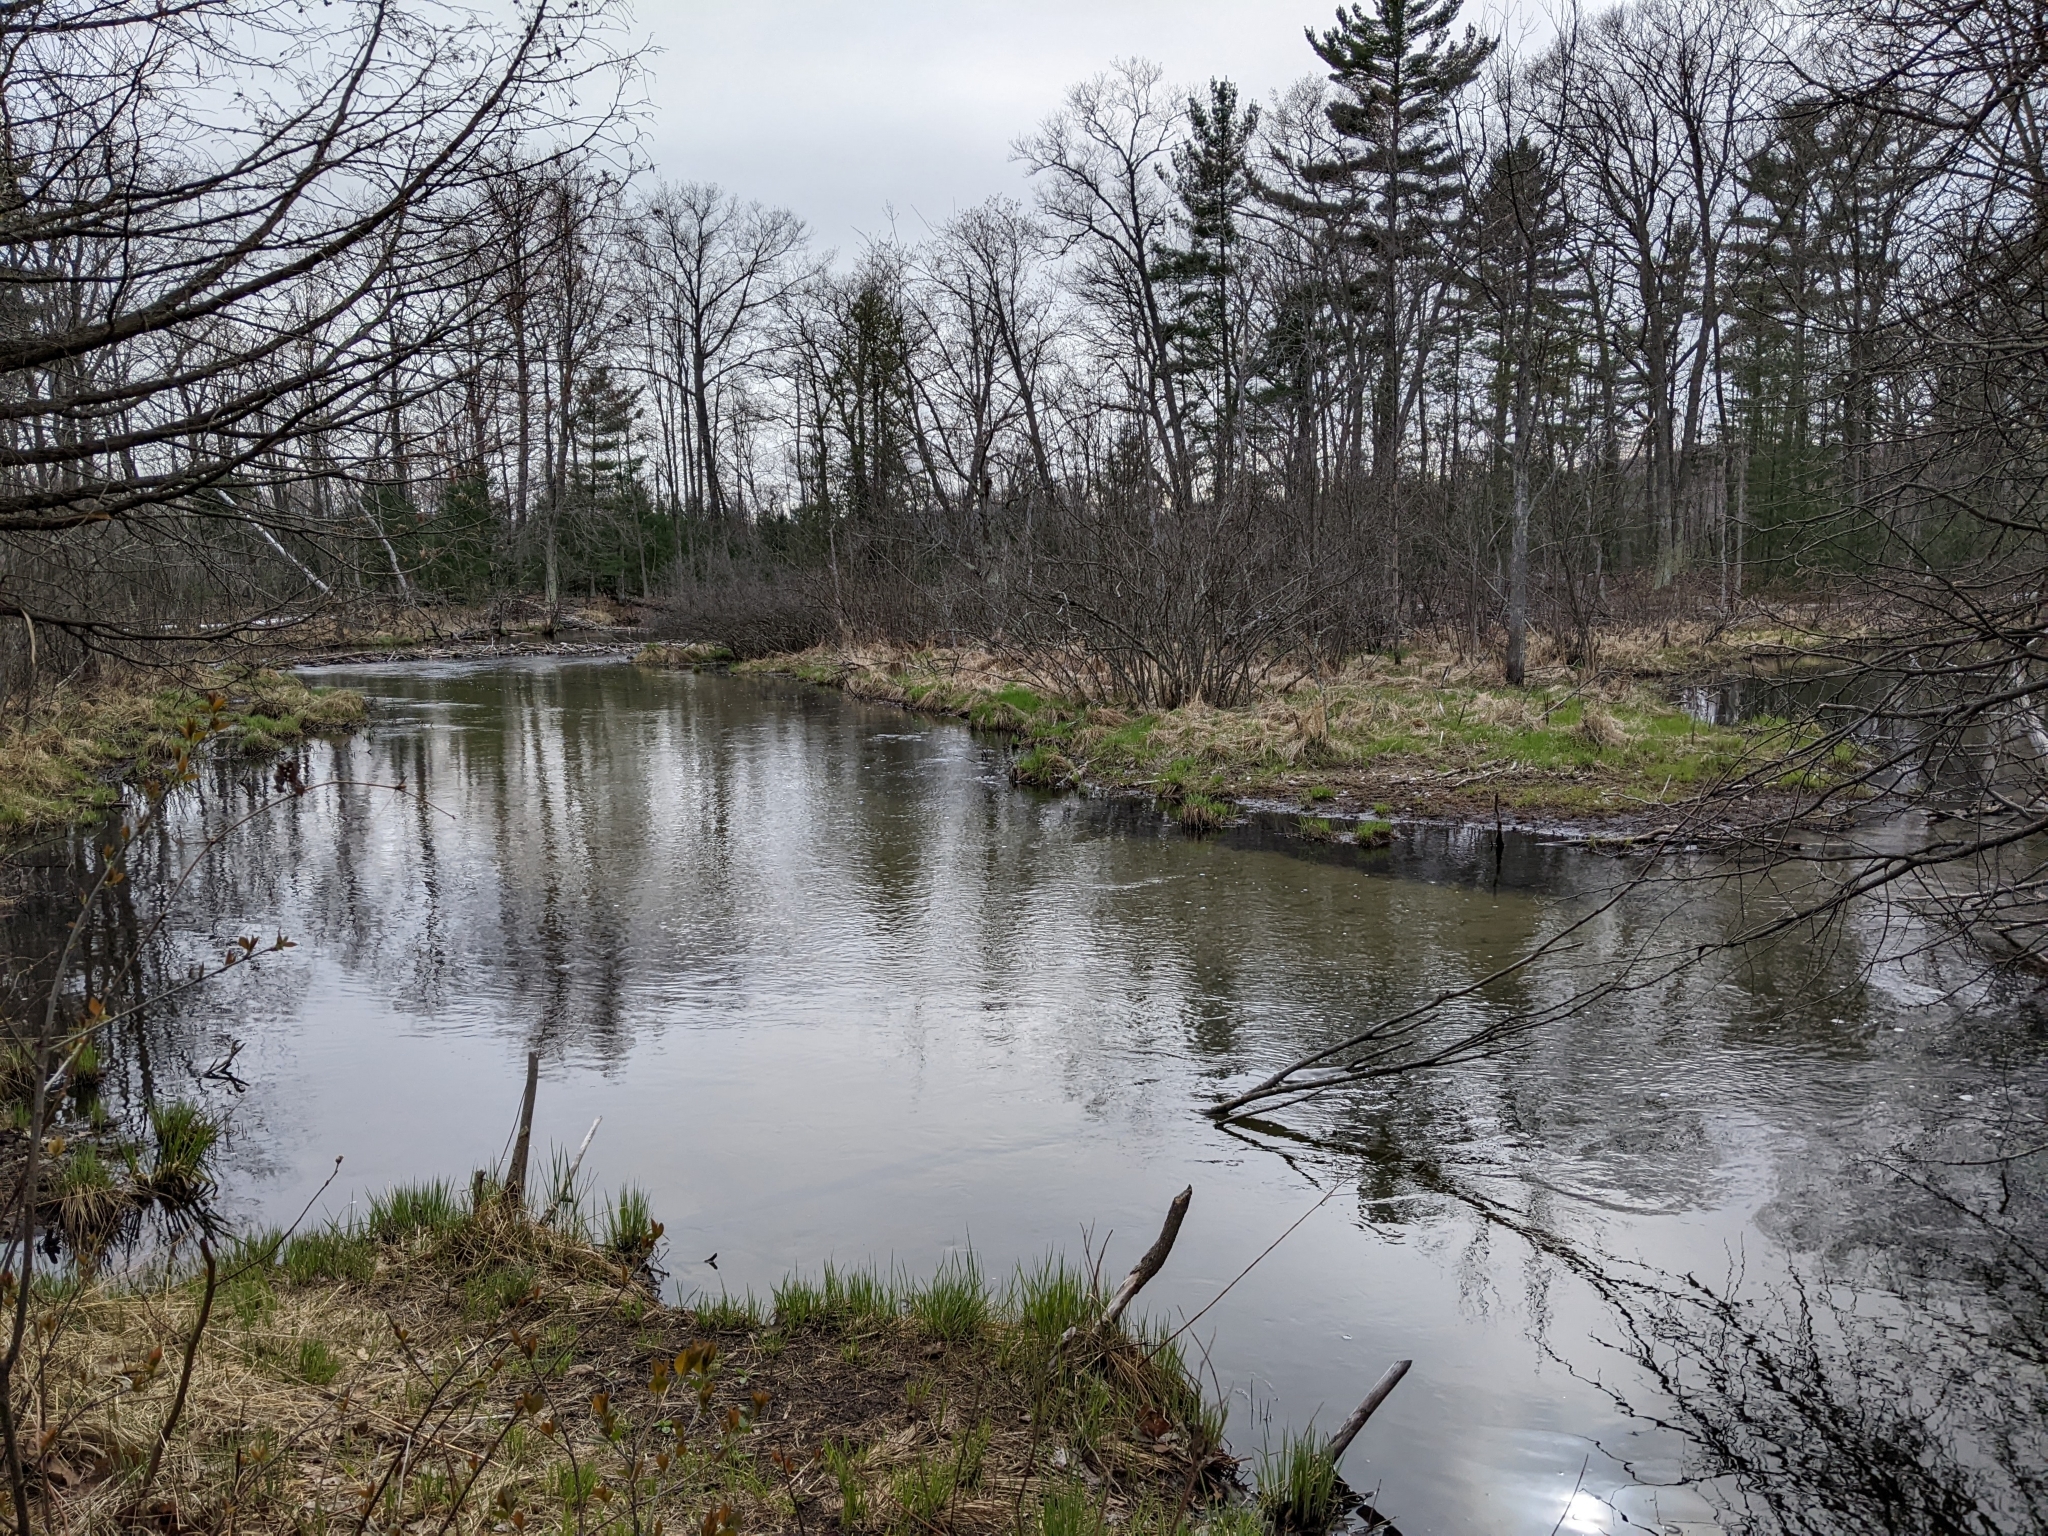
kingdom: Animalia
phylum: Chordata
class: Mammalia
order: Rodentia
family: Castoridae
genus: Castor
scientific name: Castor canadensis
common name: American beaver
